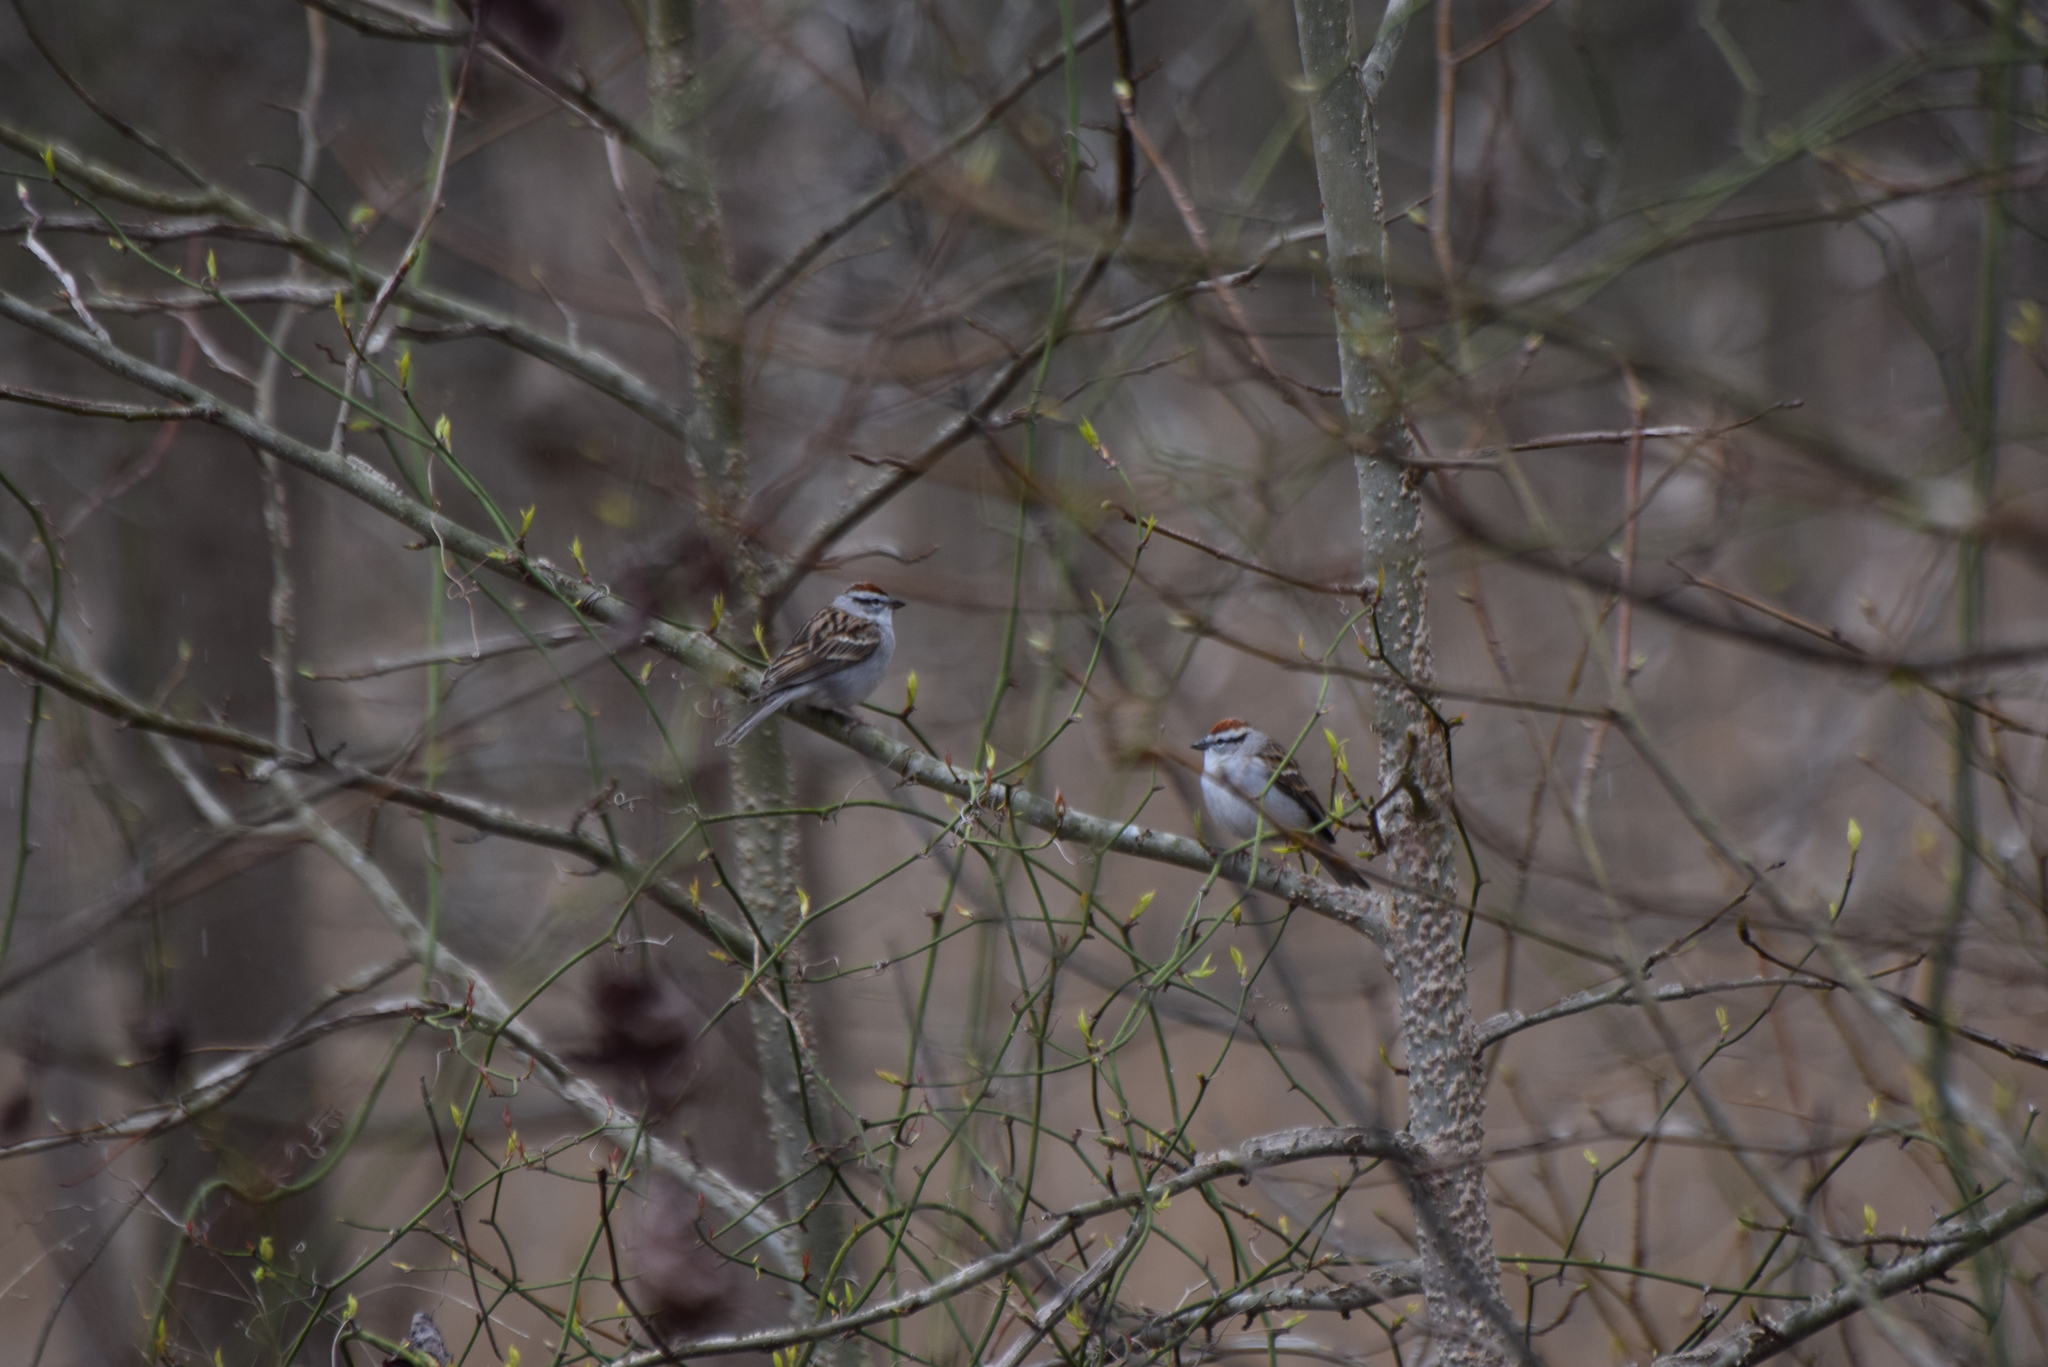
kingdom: Animalia
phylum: Chordata
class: Aves
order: Passeriformes
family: Passerellidae
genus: Spizella
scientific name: Spizella passerina
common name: Chipping sparrow
